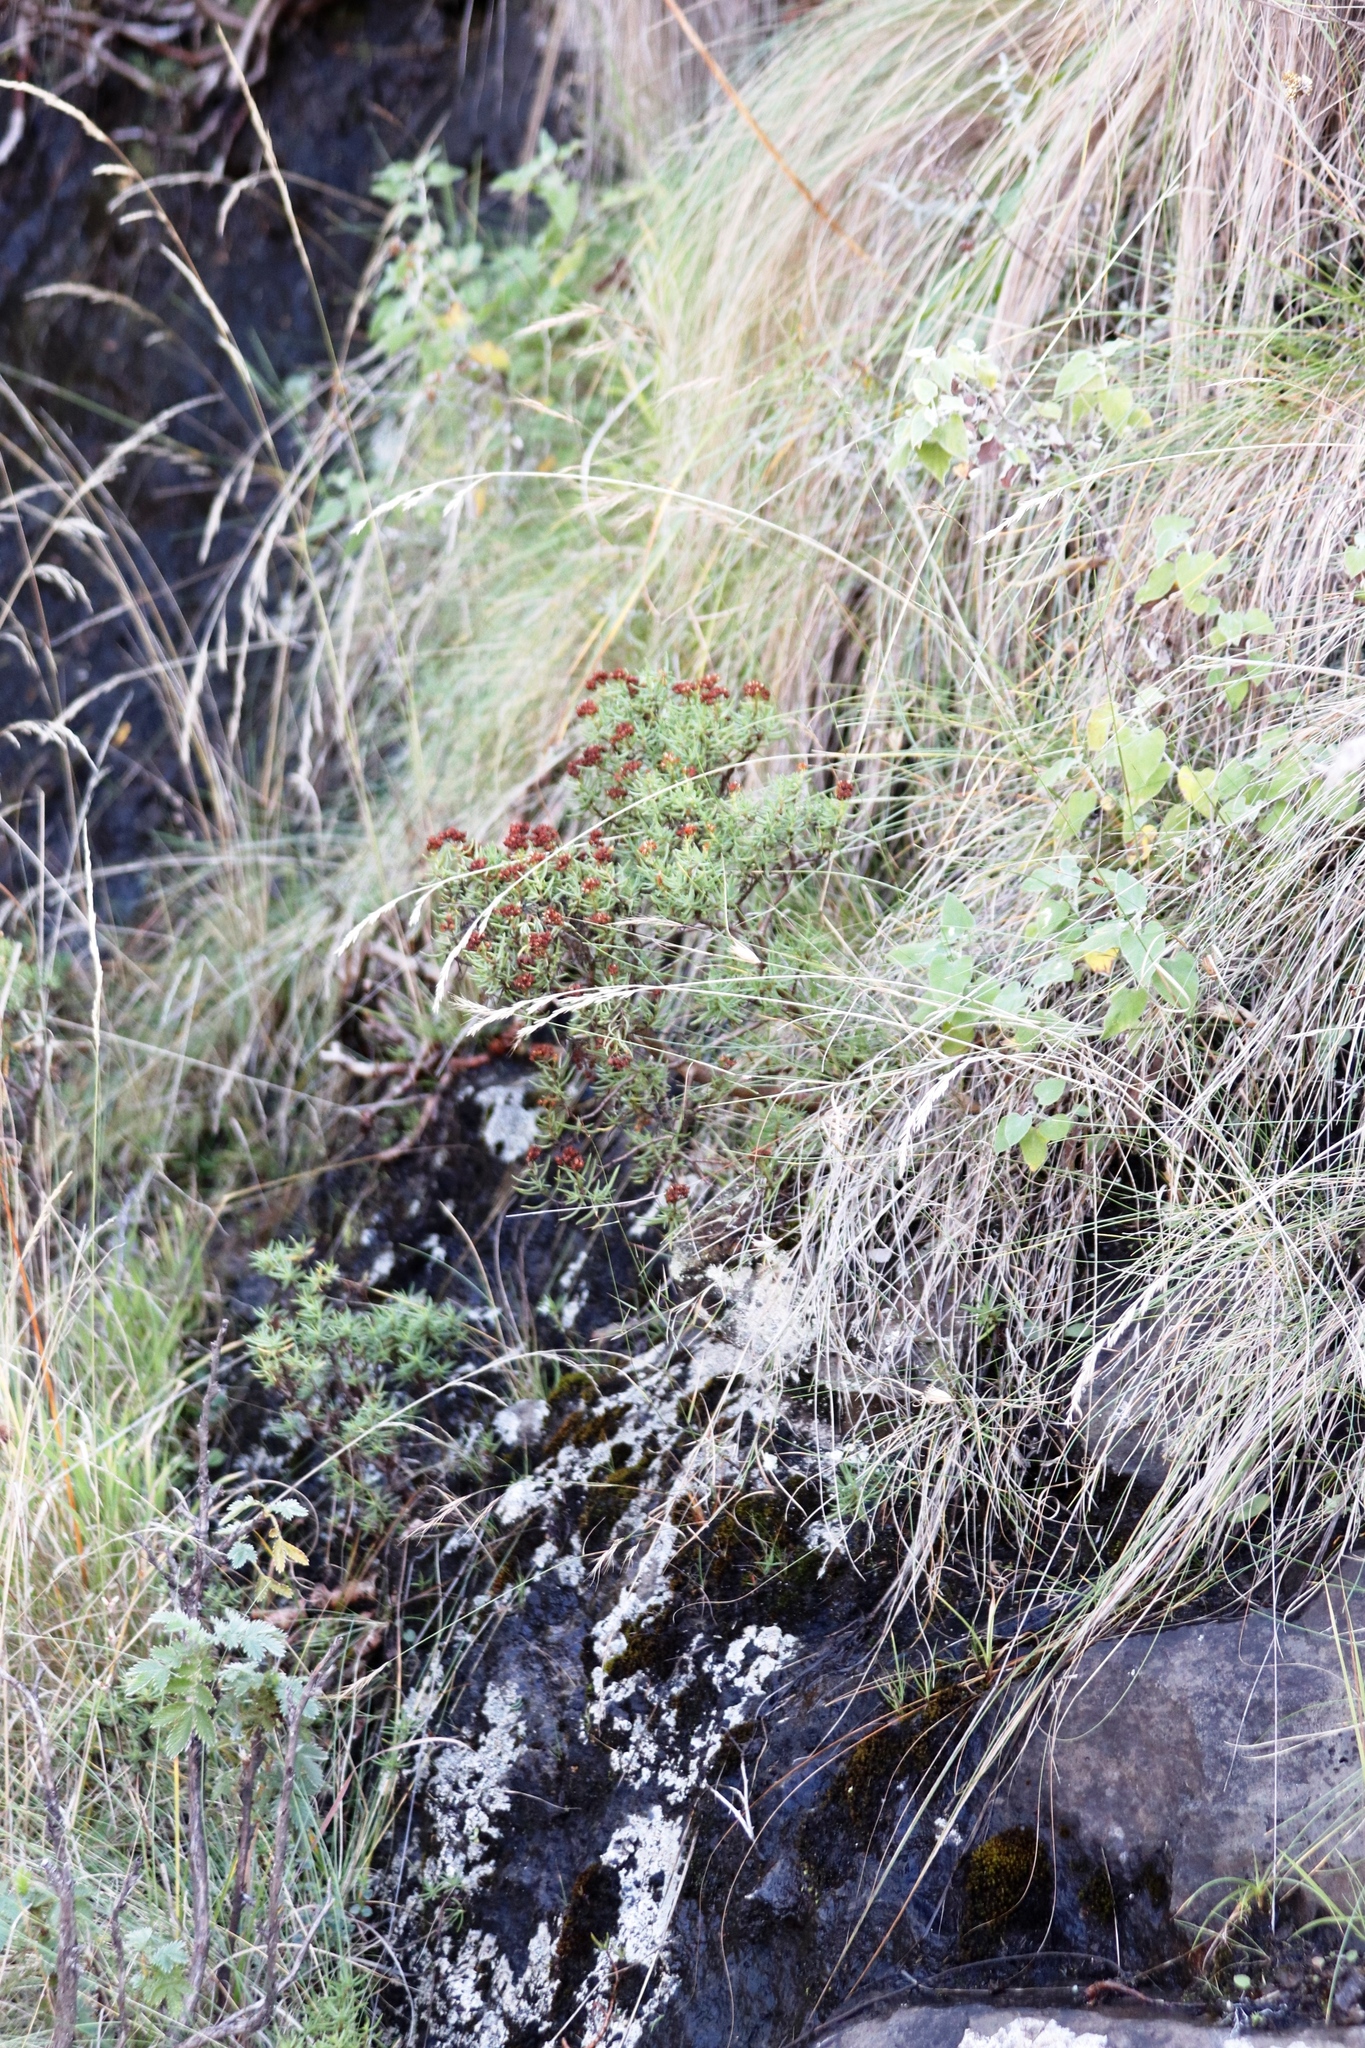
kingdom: Plantae
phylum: Tracheophyta
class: Magnoliopsida
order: Saxifragales
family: Crassulaceae
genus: Crassula
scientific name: Crassula sarcocaulis
